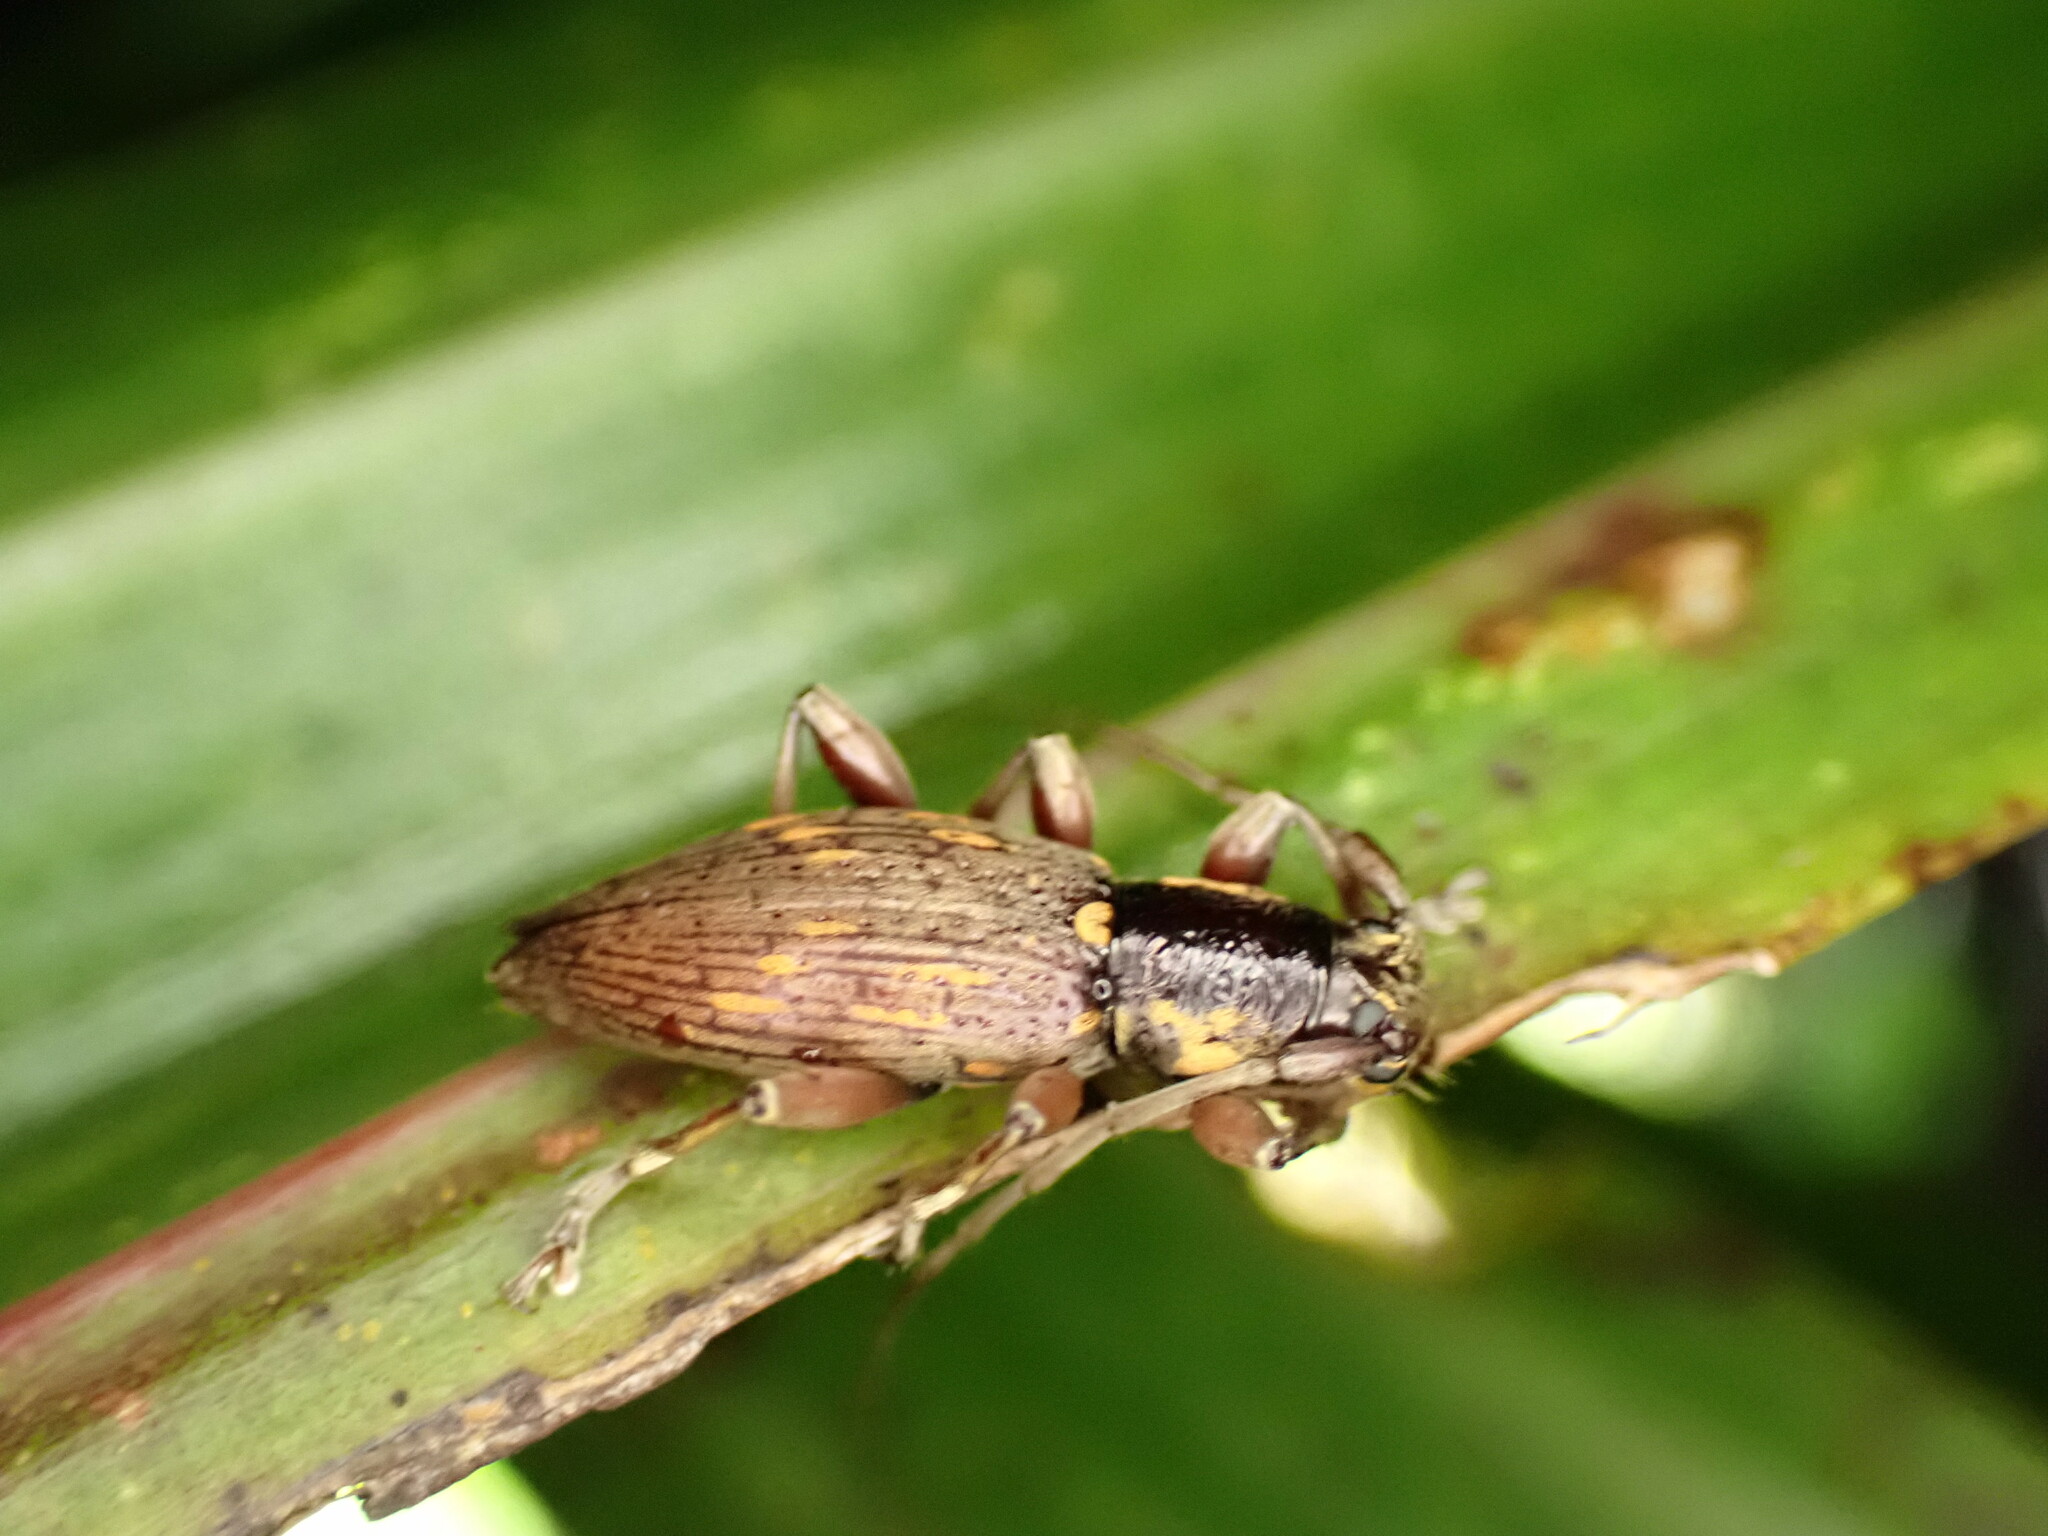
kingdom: Animalia
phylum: Arthropoda
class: Insecta
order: Coleoptera
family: Cerambycidae
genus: Xylotoles
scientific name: Xylotoles
